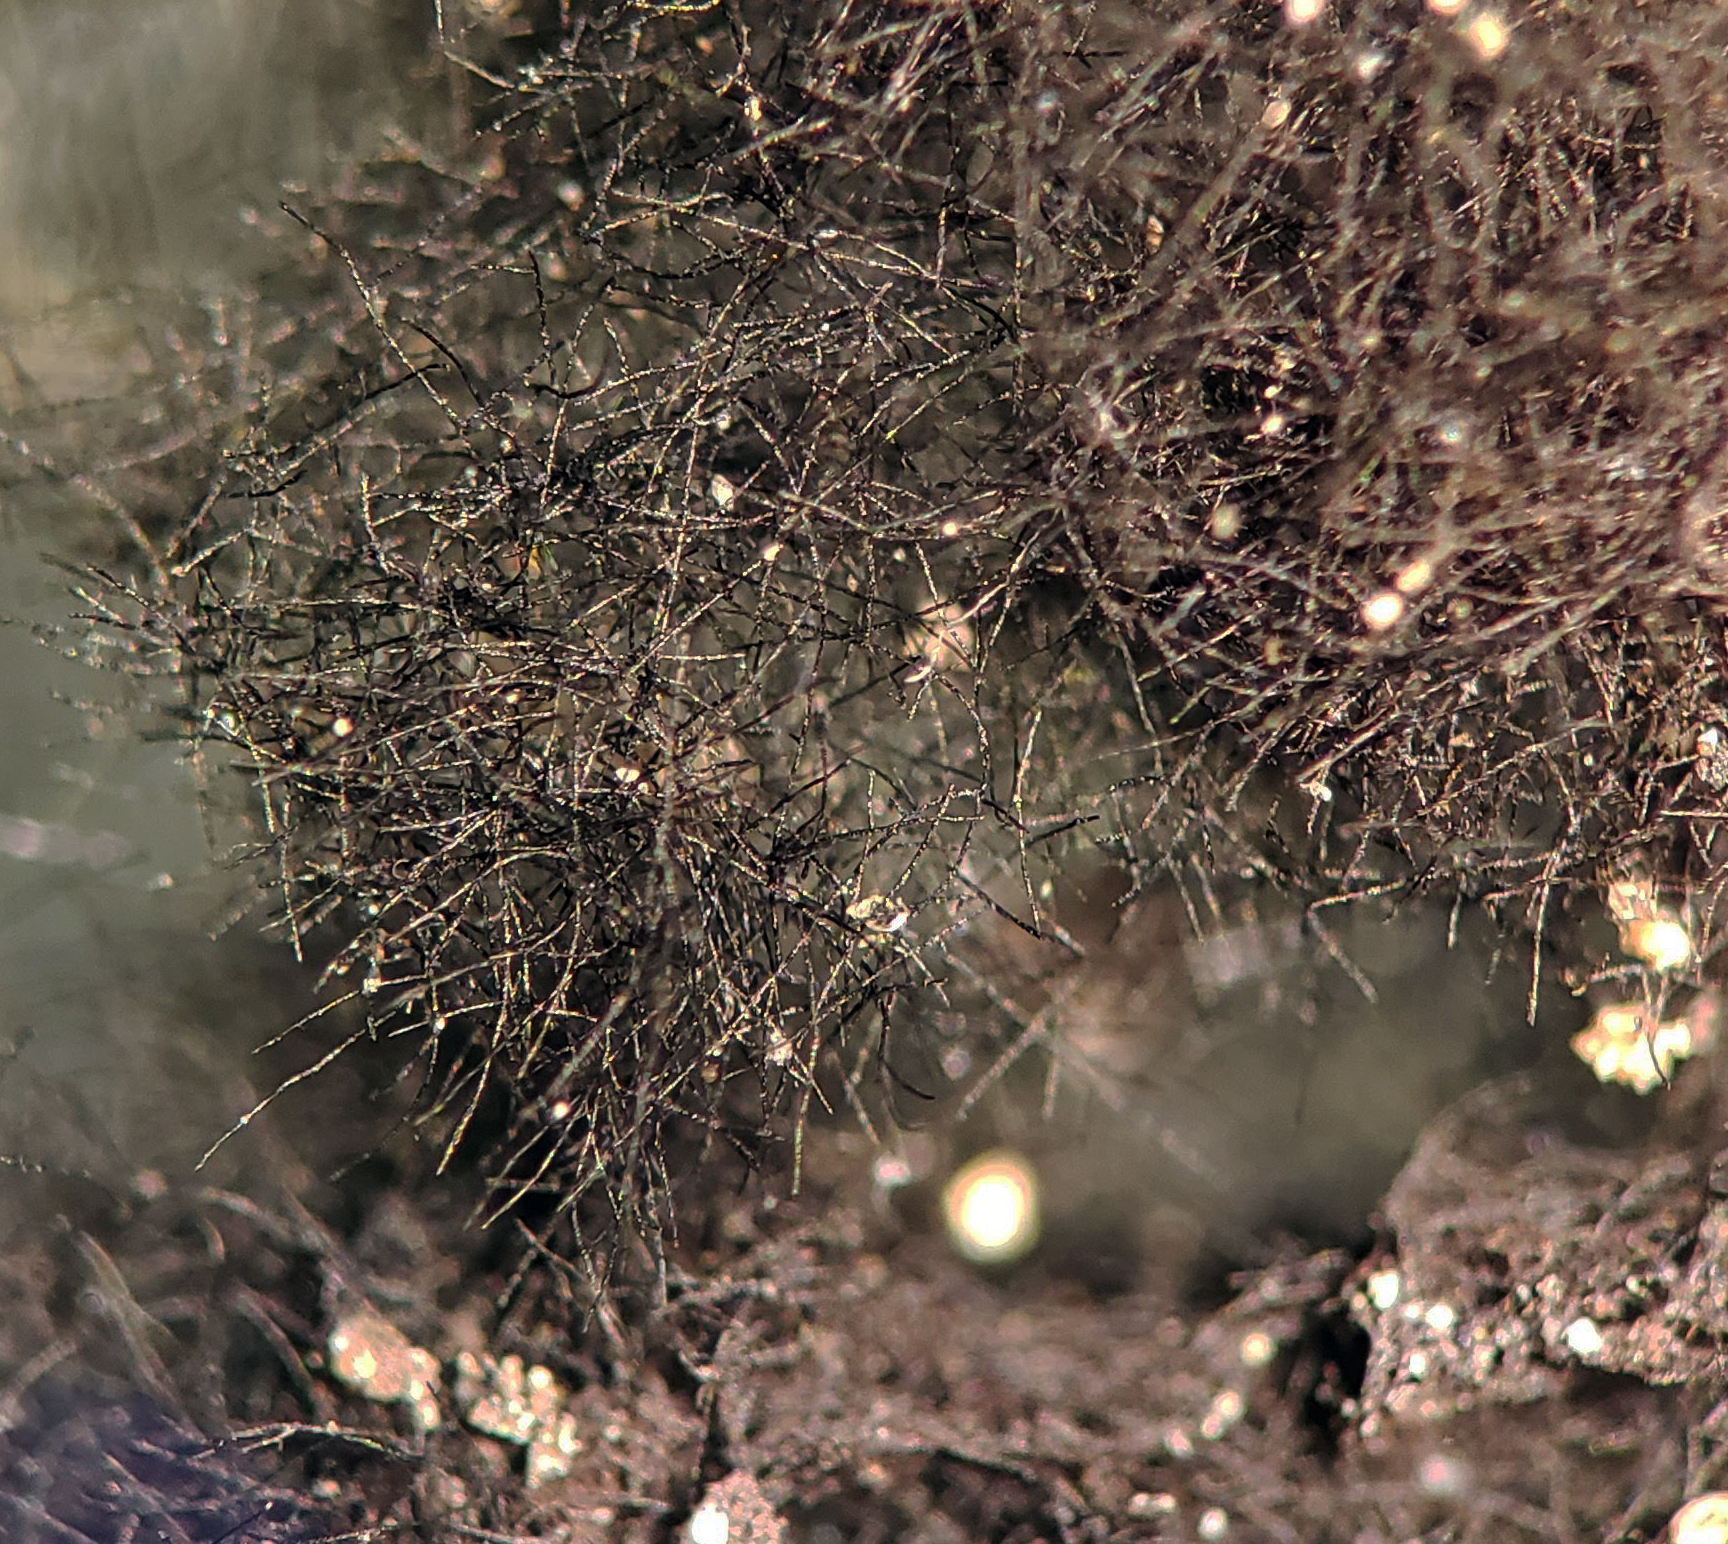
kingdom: Fungi
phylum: Ascomycota
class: Dothideomycetes
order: Capnodiales
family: Cystocoleaceae
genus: Cystocoleus
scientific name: Cystocoleus ebeneus
